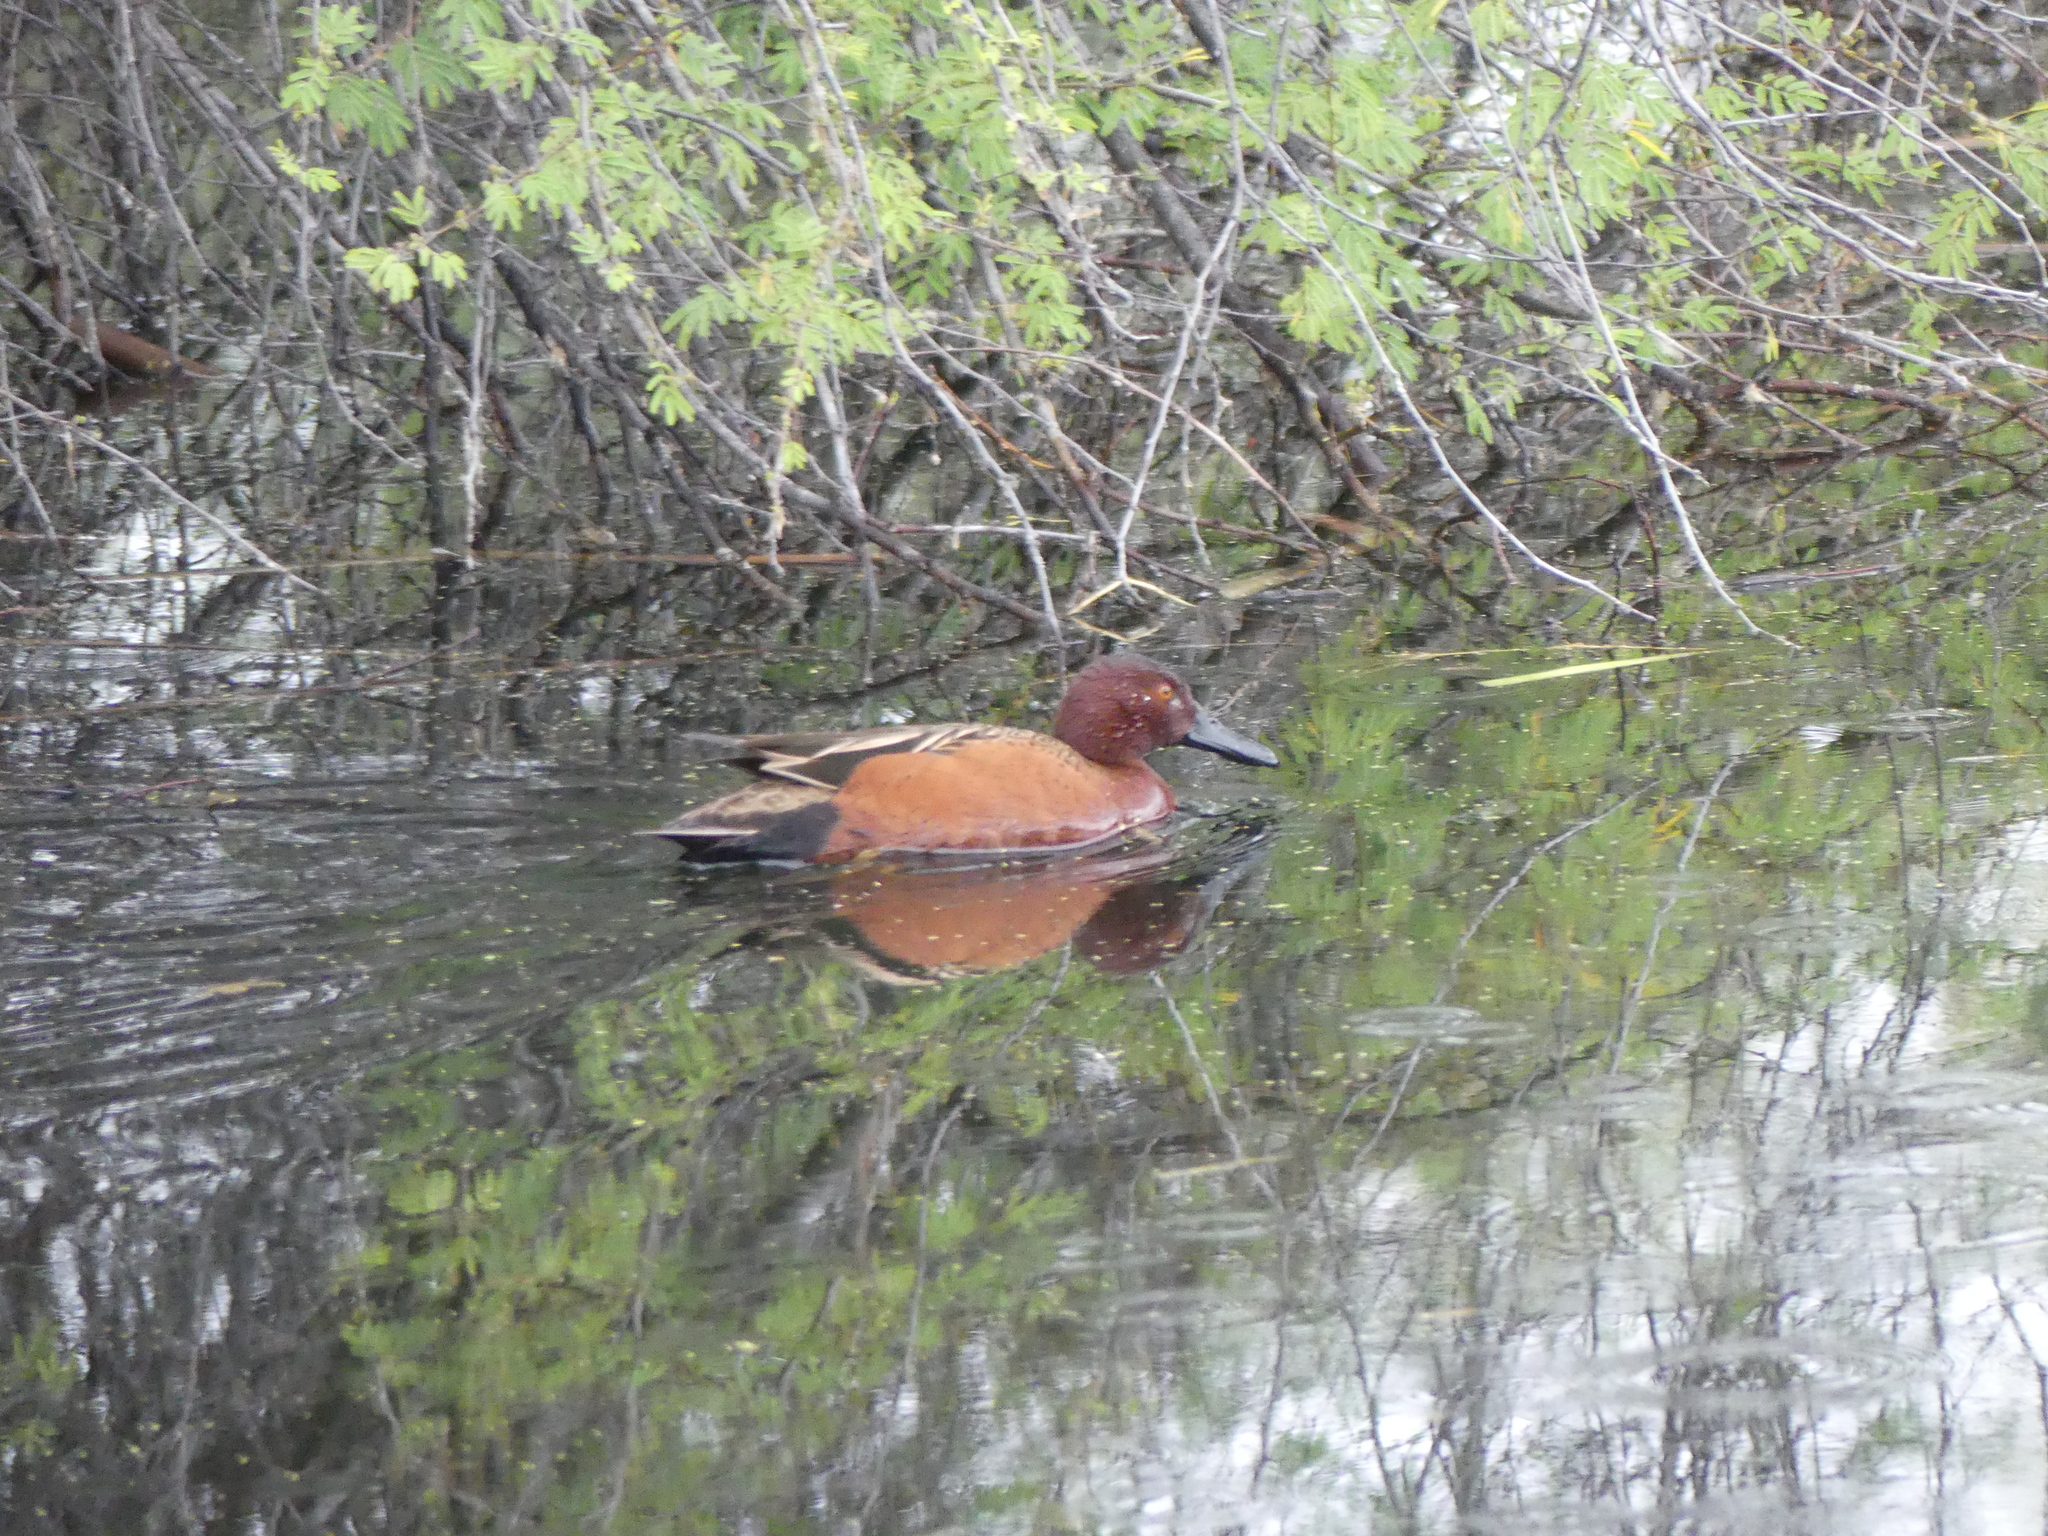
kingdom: Animalia
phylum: Chordata
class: Aves
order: Anseriformes
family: Anatidae
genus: Spatula
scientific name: Spatula cyanoptera
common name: Cinnamon teal
